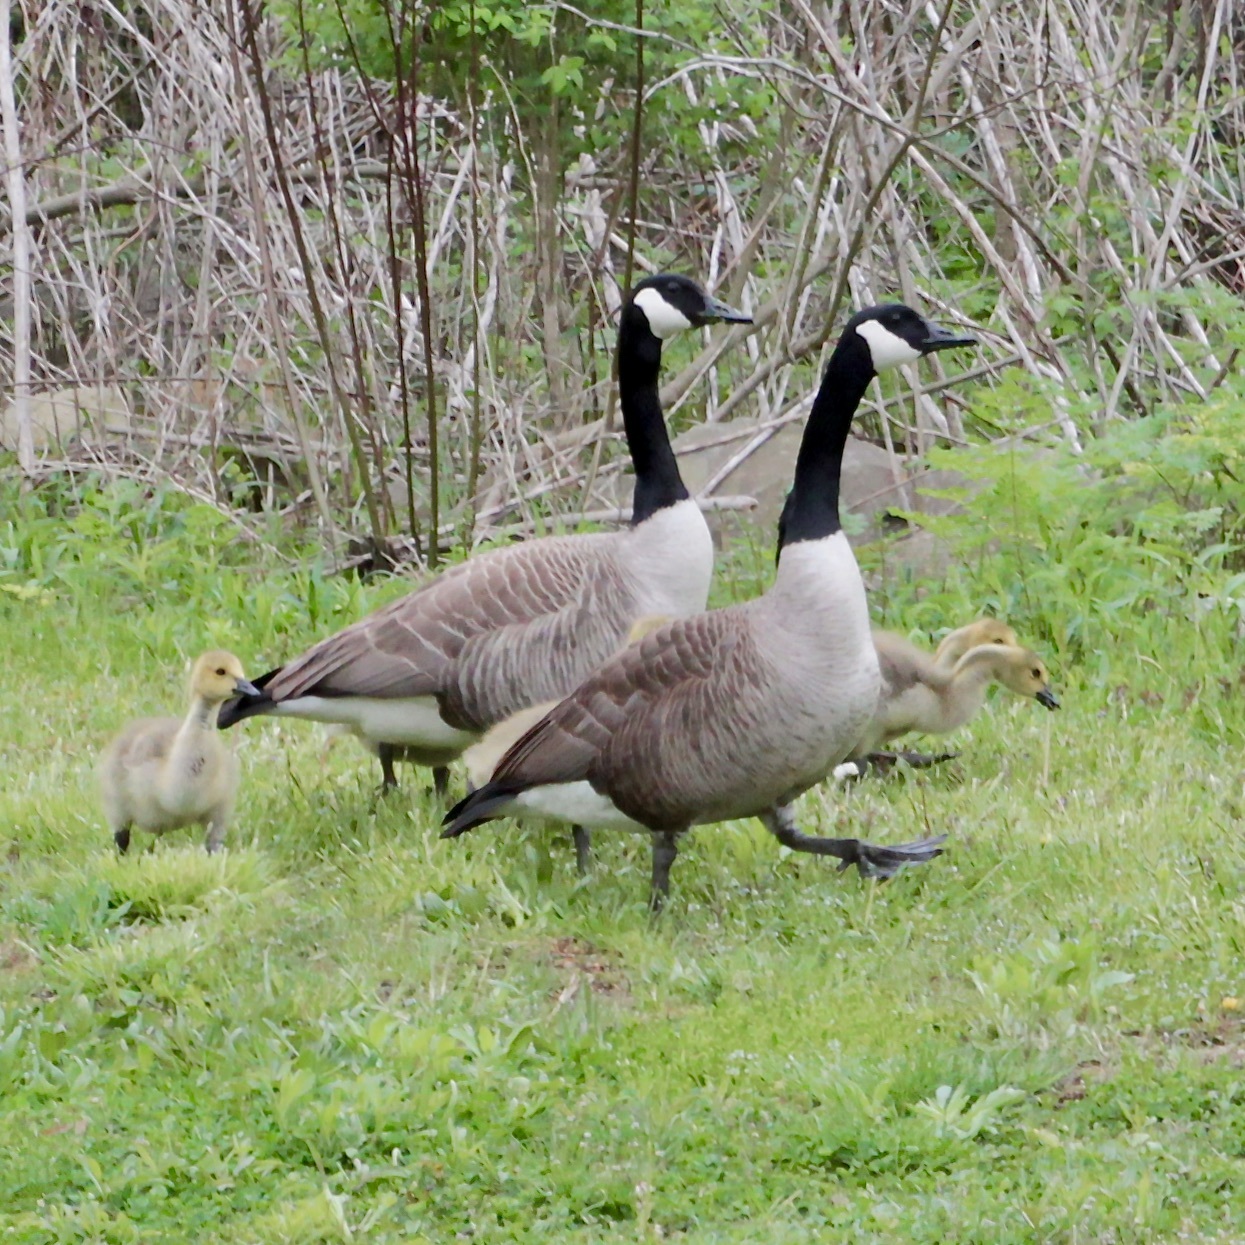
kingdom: Animalia
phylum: Chordata
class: Aves
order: Anseriformes
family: Anatidae
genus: Branta
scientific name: Branta canadensis
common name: Canada goose
